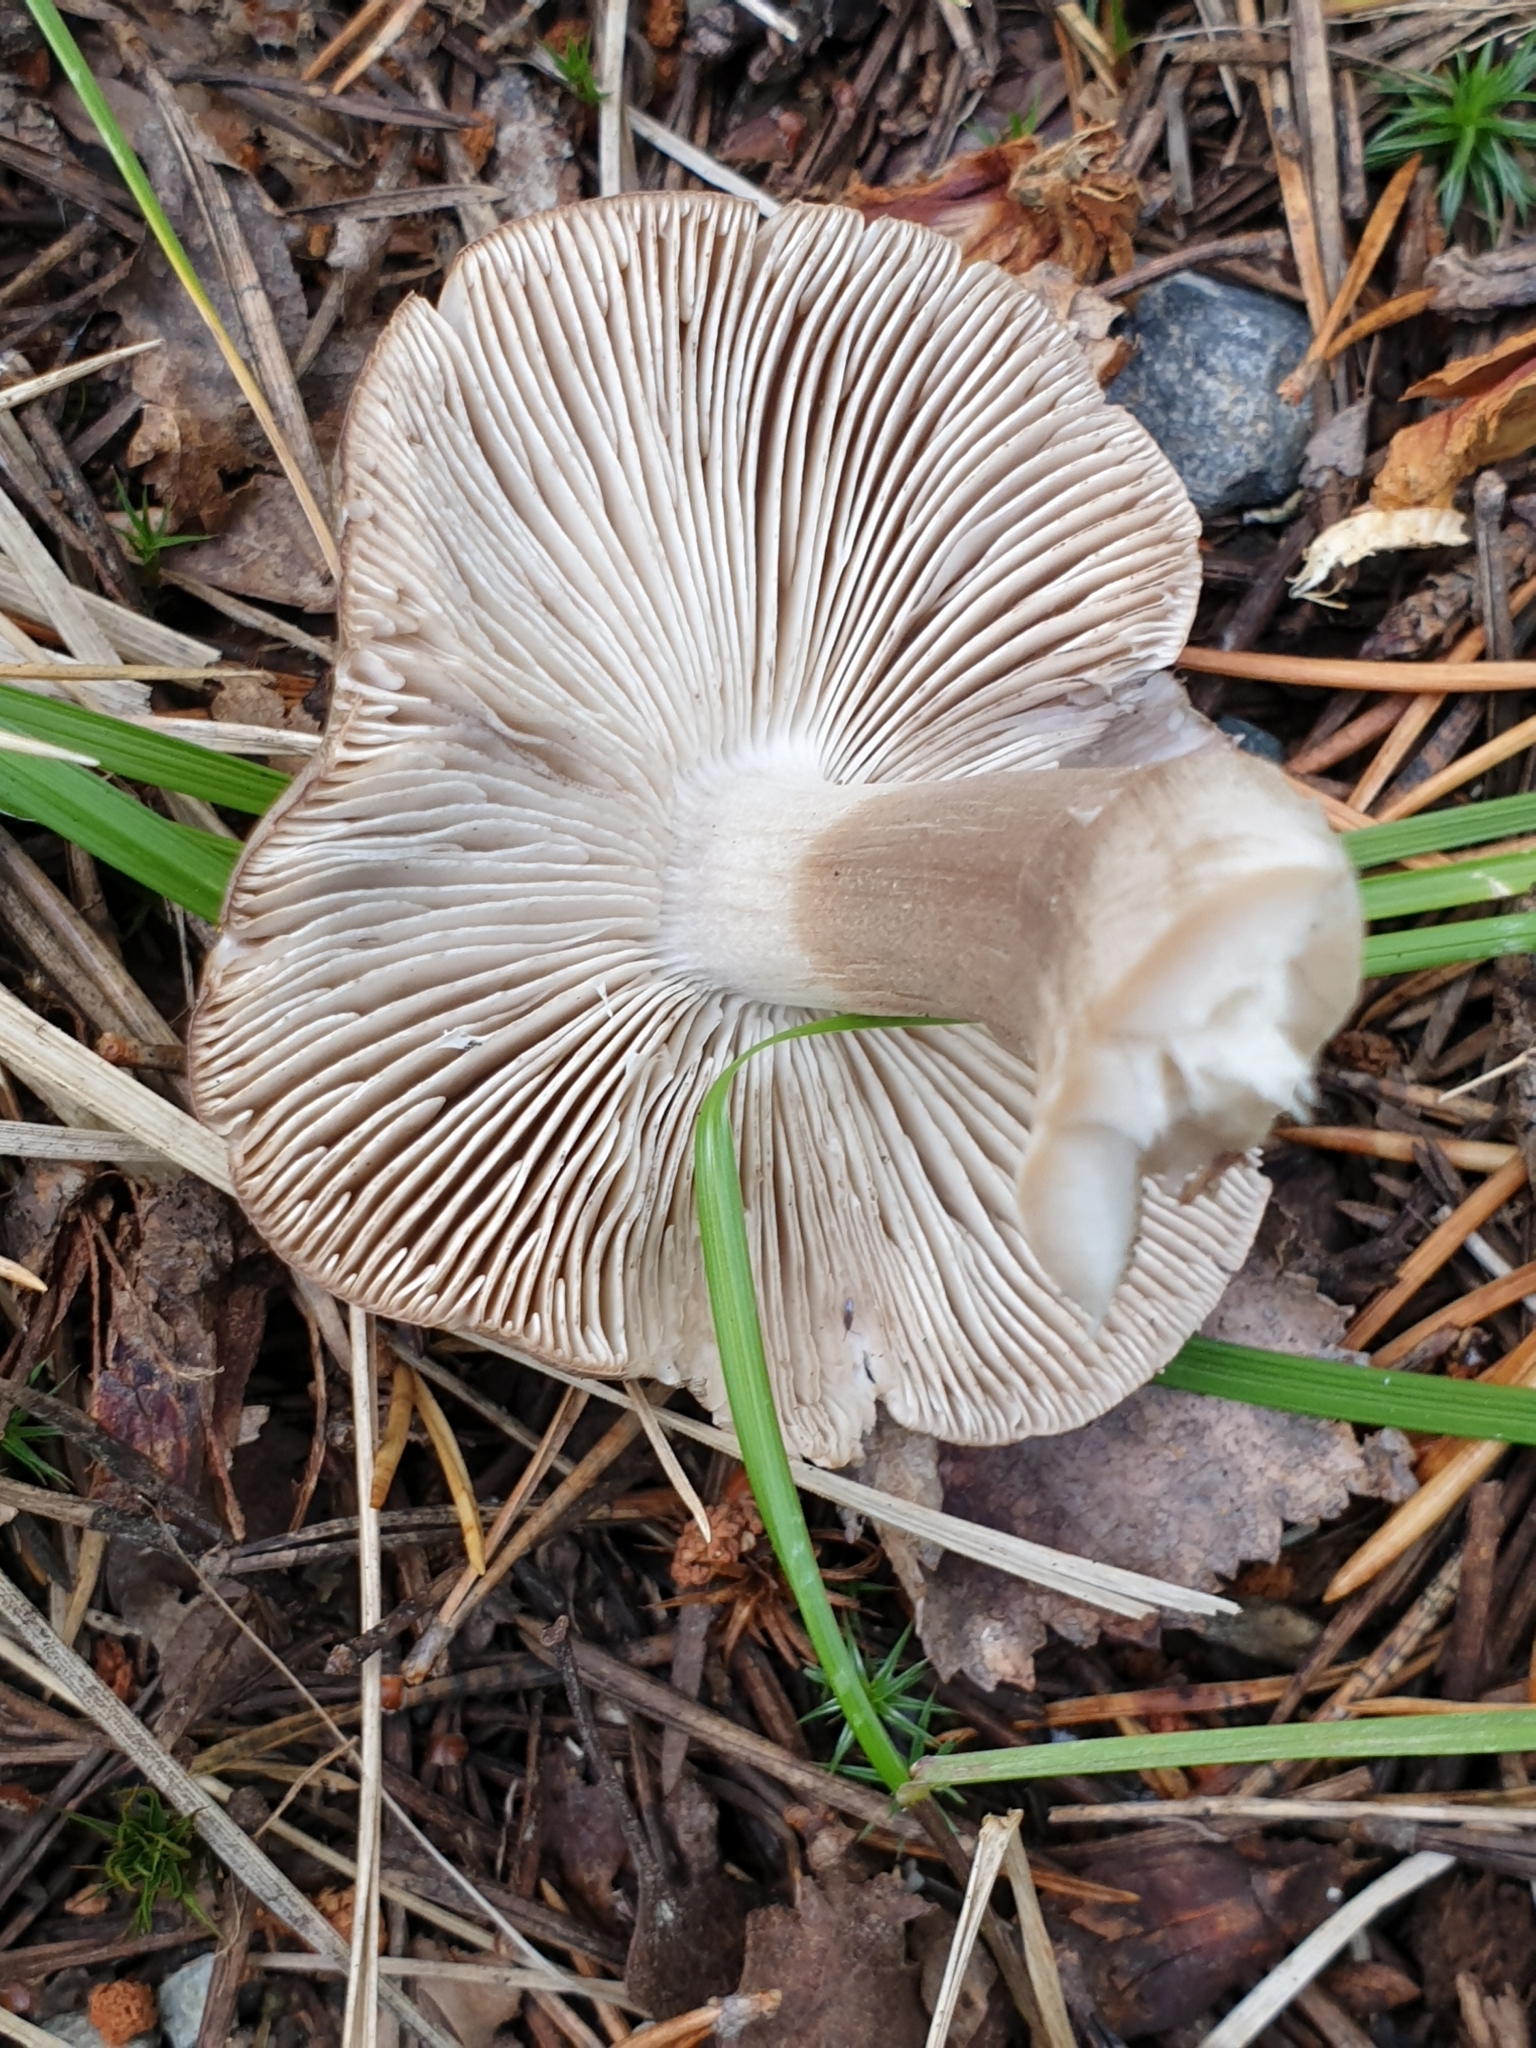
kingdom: Fungi
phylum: Basidiomycota
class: Agaricomycetes
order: Agaricales
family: Tricholomataceae
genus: Tricholoma
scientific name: Tricholoma virgatum
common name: Ashen knight
